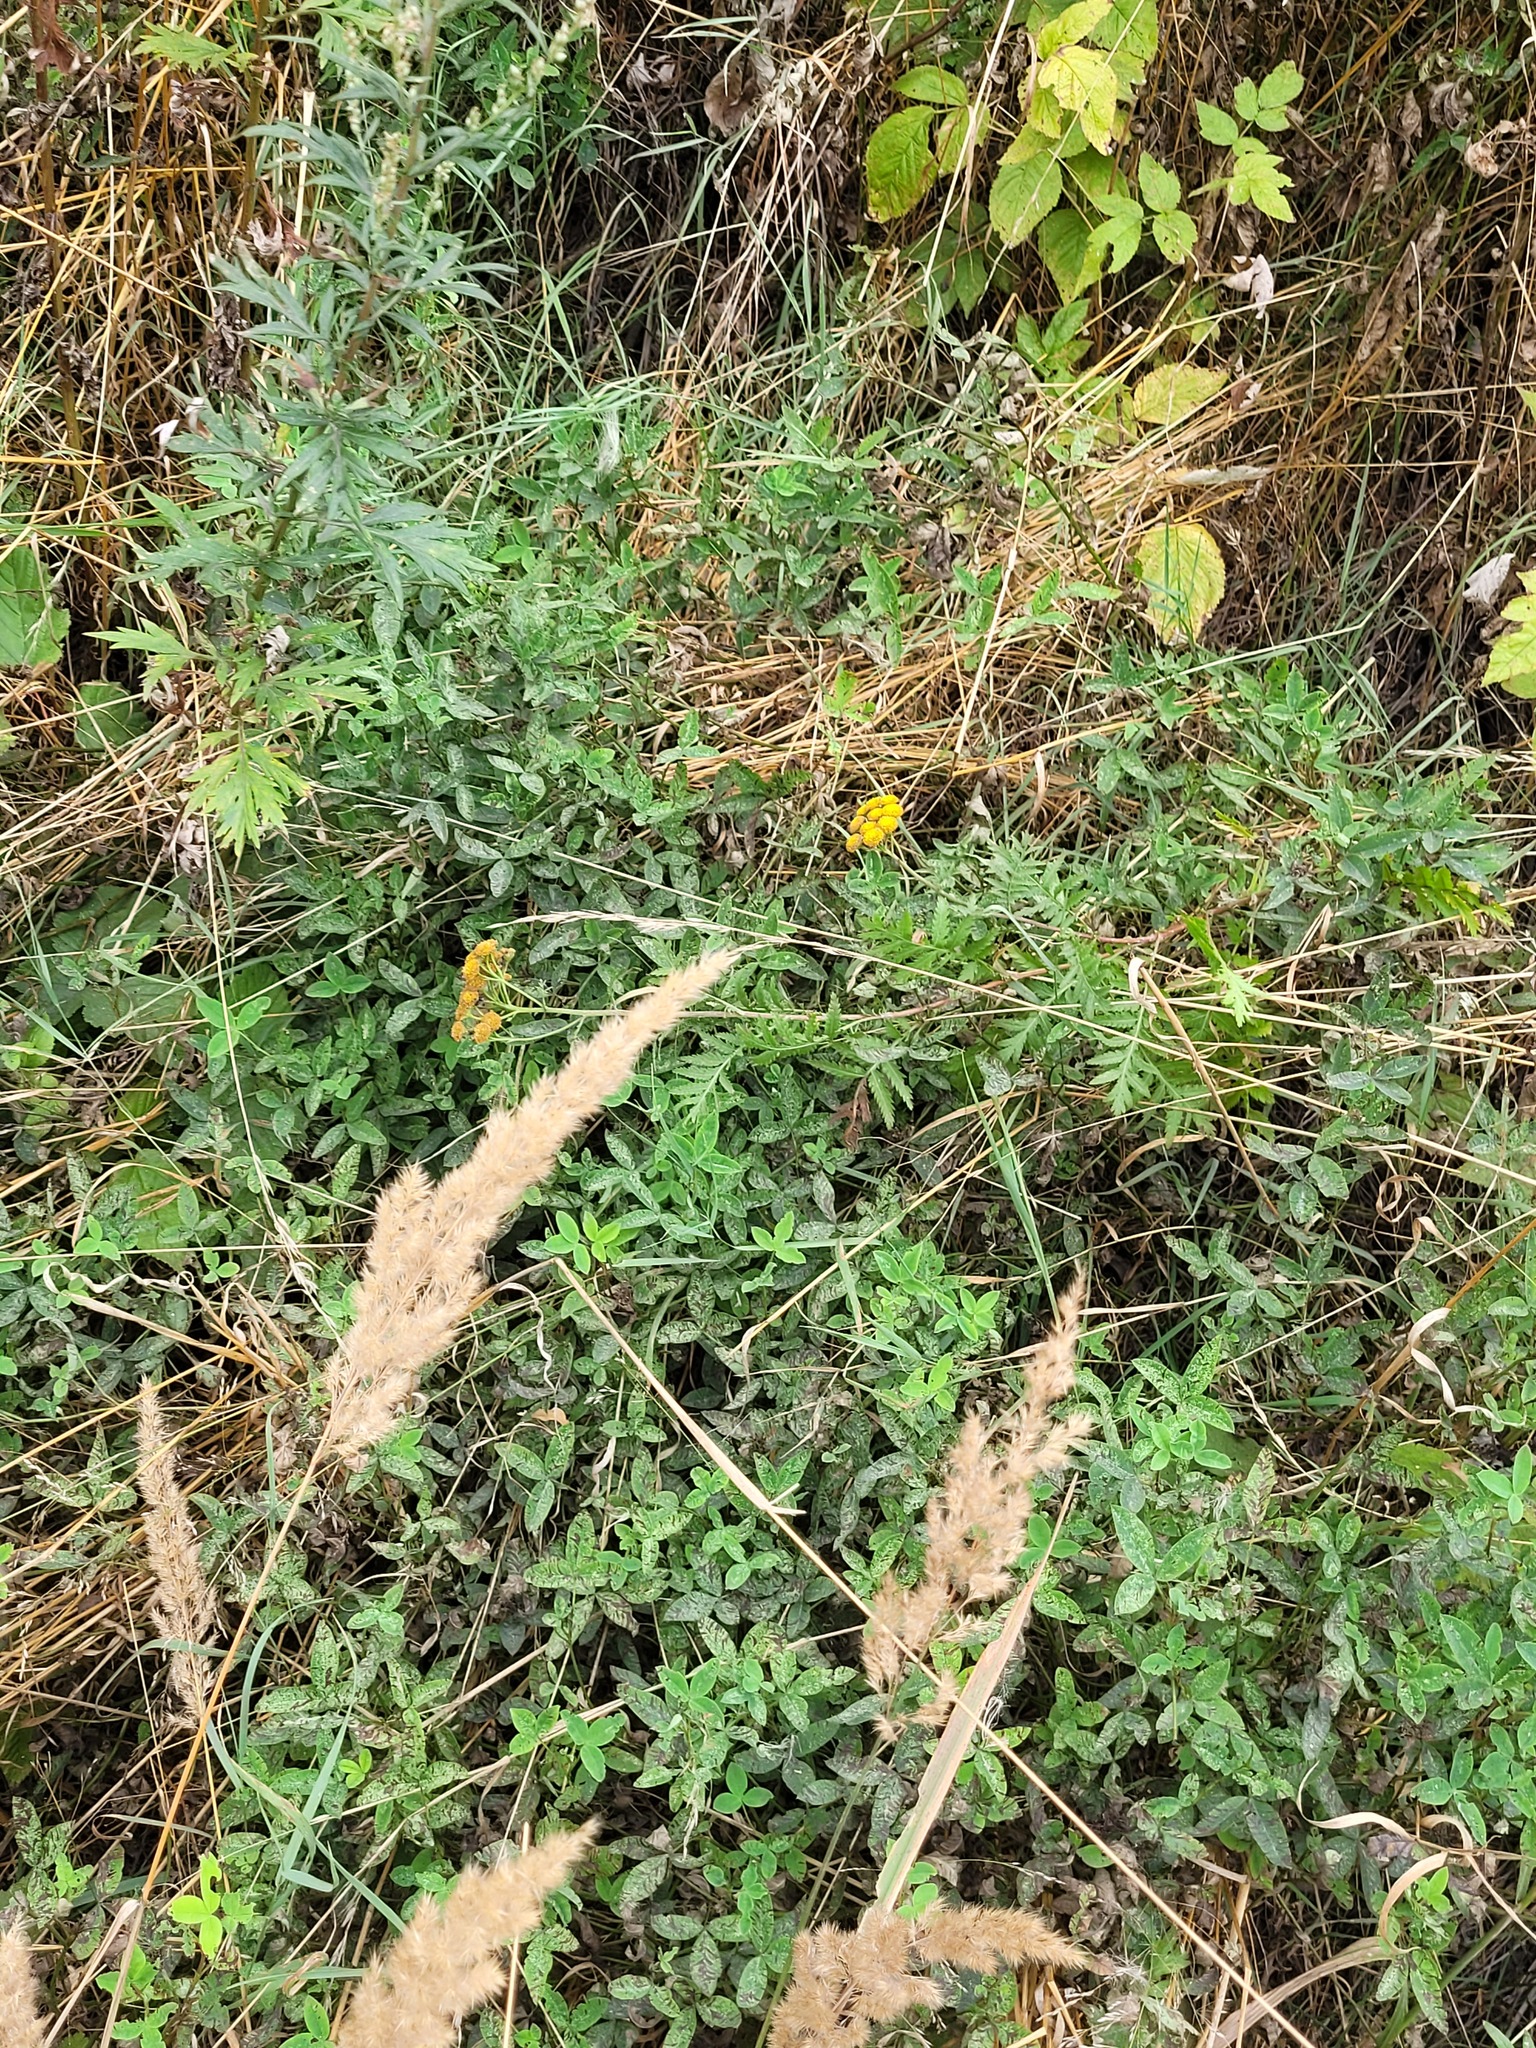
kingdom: Plantae
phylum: Tracheophyta
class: Magnoliopsida
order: Fabales
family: Fabaceae
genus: Trifolium
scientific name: Trifolium medium
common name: Zigzag clover
